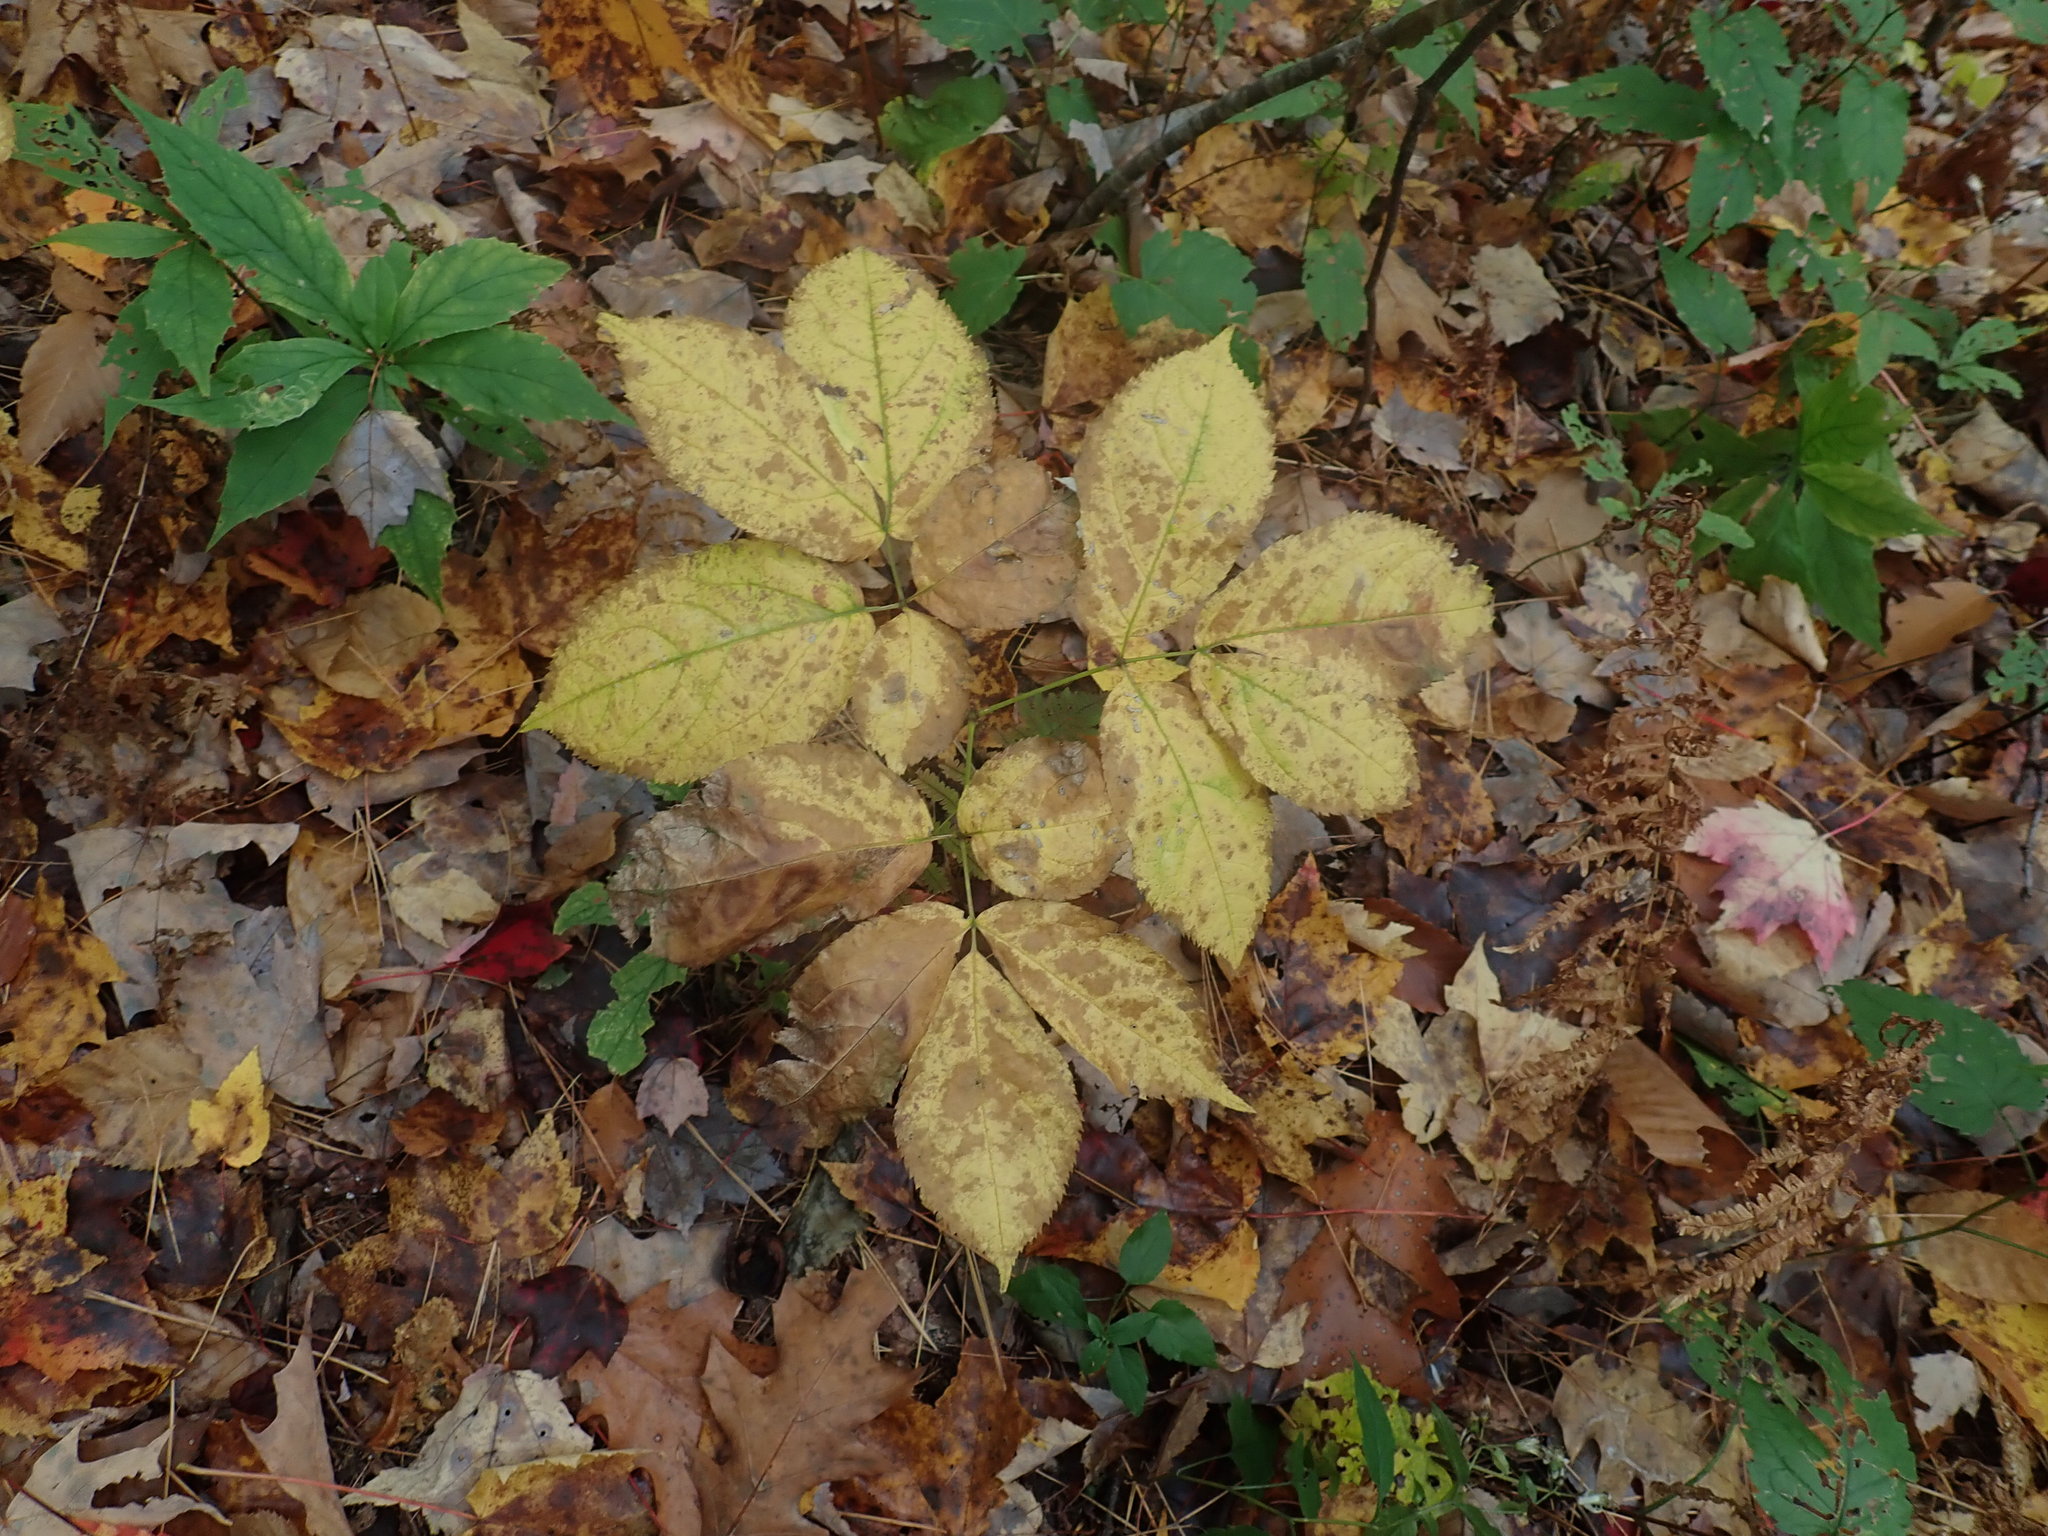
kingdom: Plantae
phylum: Tracheophyta
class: Magnoliopsida
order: Apiales
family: Araliaceae
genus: Aralia
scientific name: Aralia nudicaulis
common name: Wild sarsaparilla
